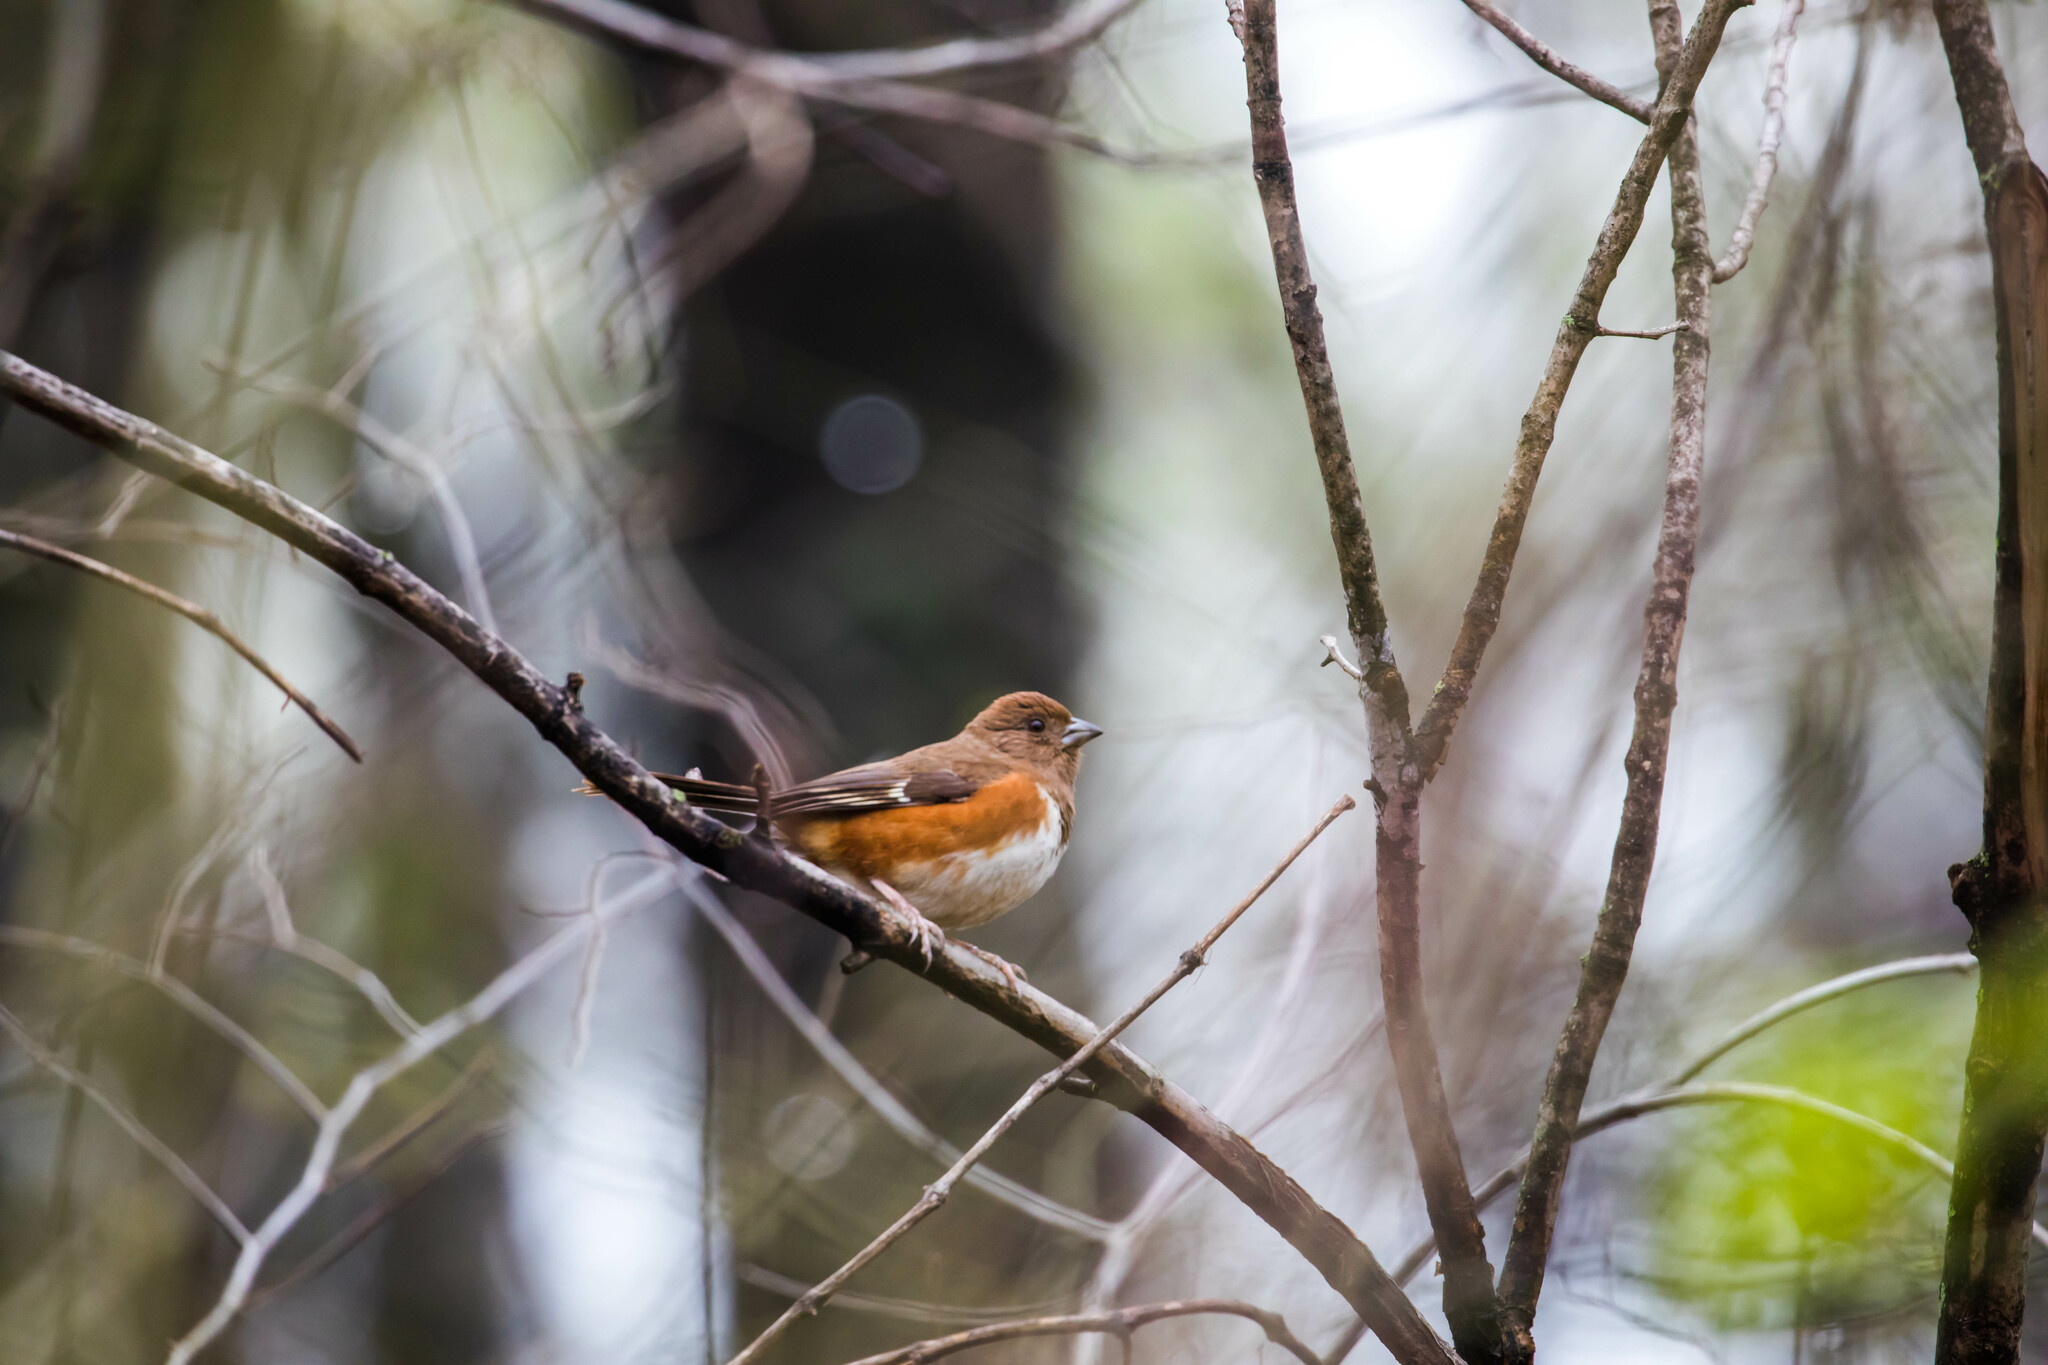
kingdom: Animalia
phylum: Chordata
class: Aves
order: Passeriformes
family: Passerellidae
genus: Pipilo
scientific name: Pipilo erythrophthalmus
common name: Eastern towhee
